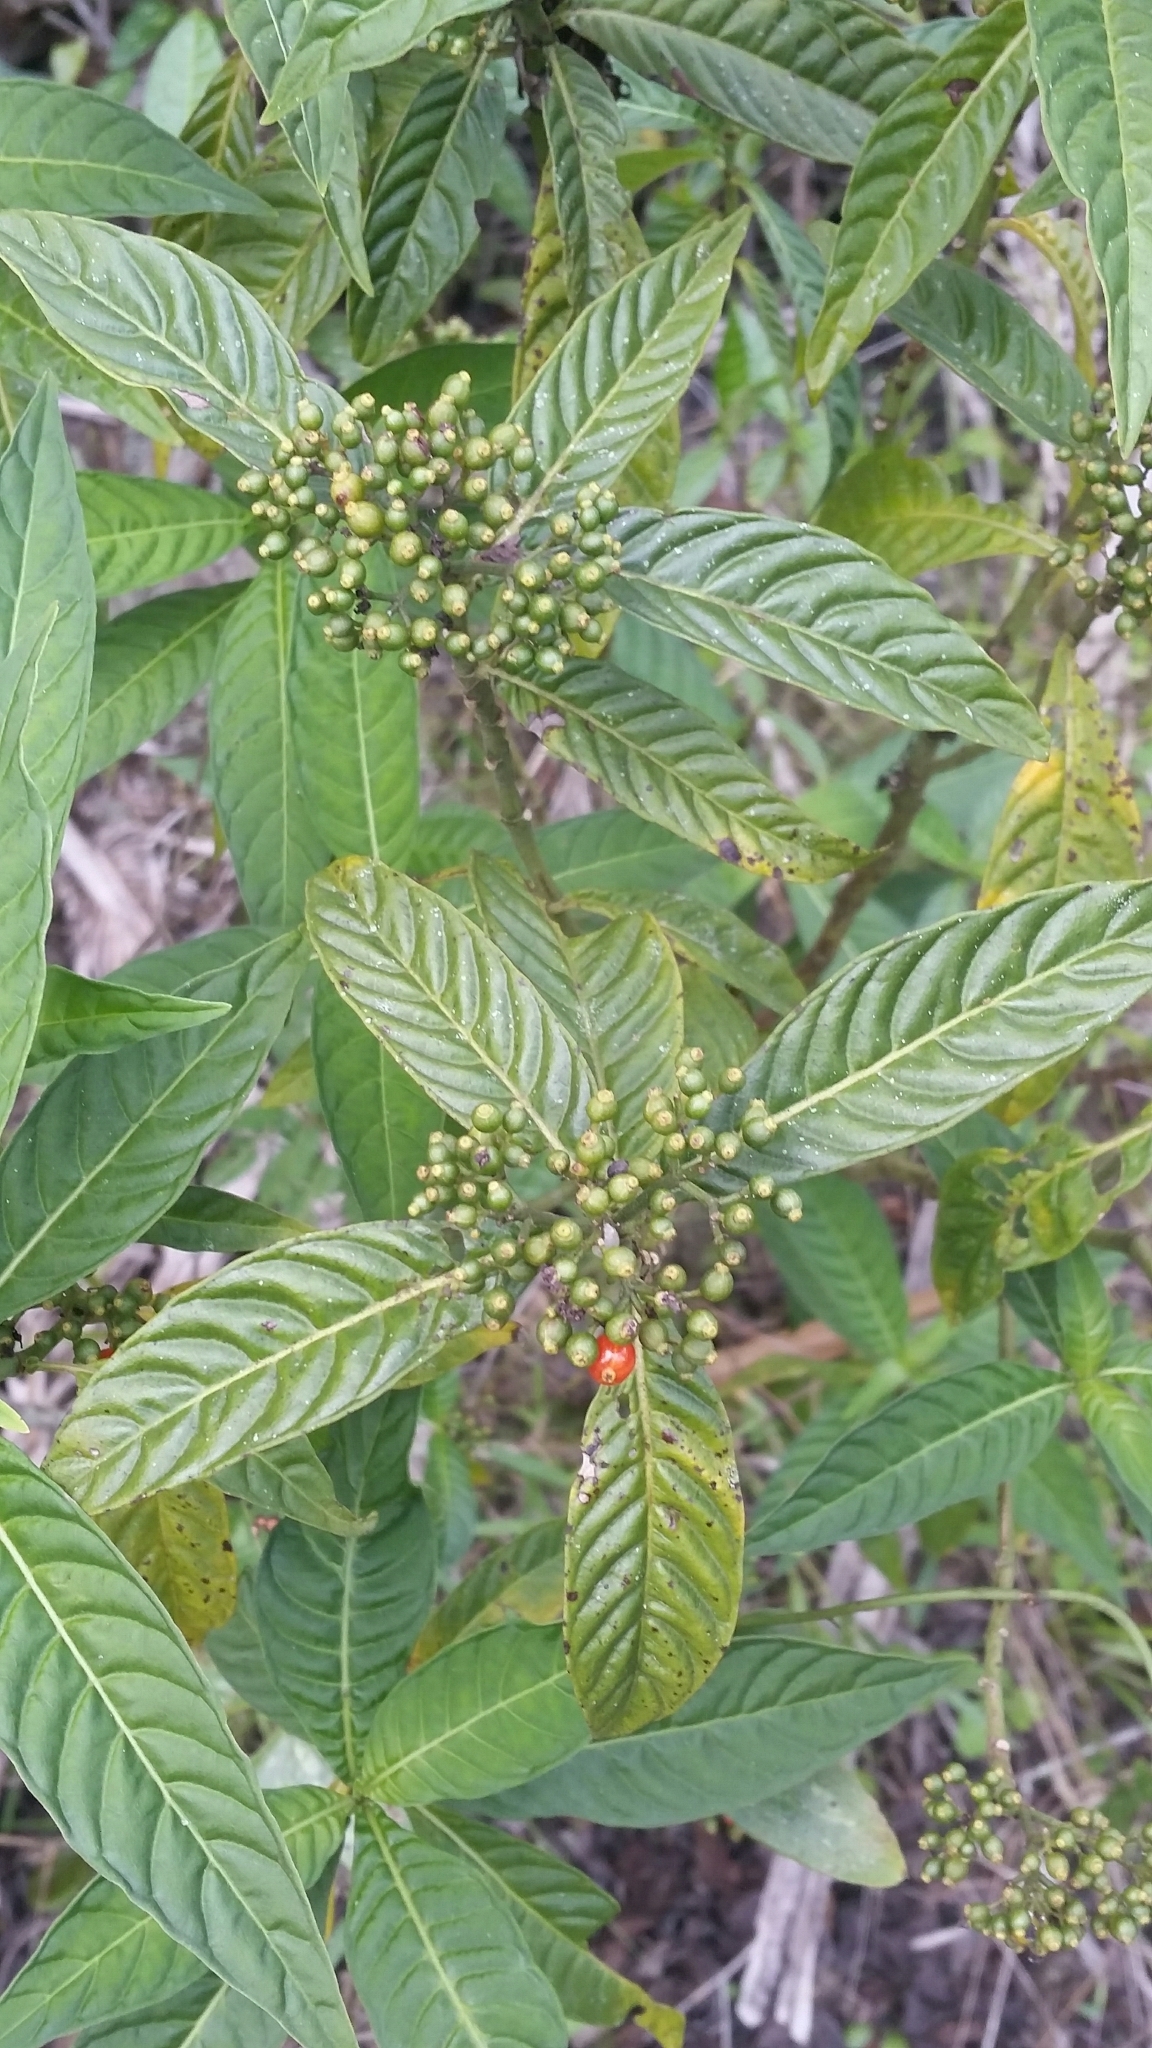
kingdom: Plantae
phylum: Tracheophyta
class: Magnoliopsida
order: Gentianales
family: Rubiaceae
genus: Psychotria
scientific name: Psychotria tenuifolia
